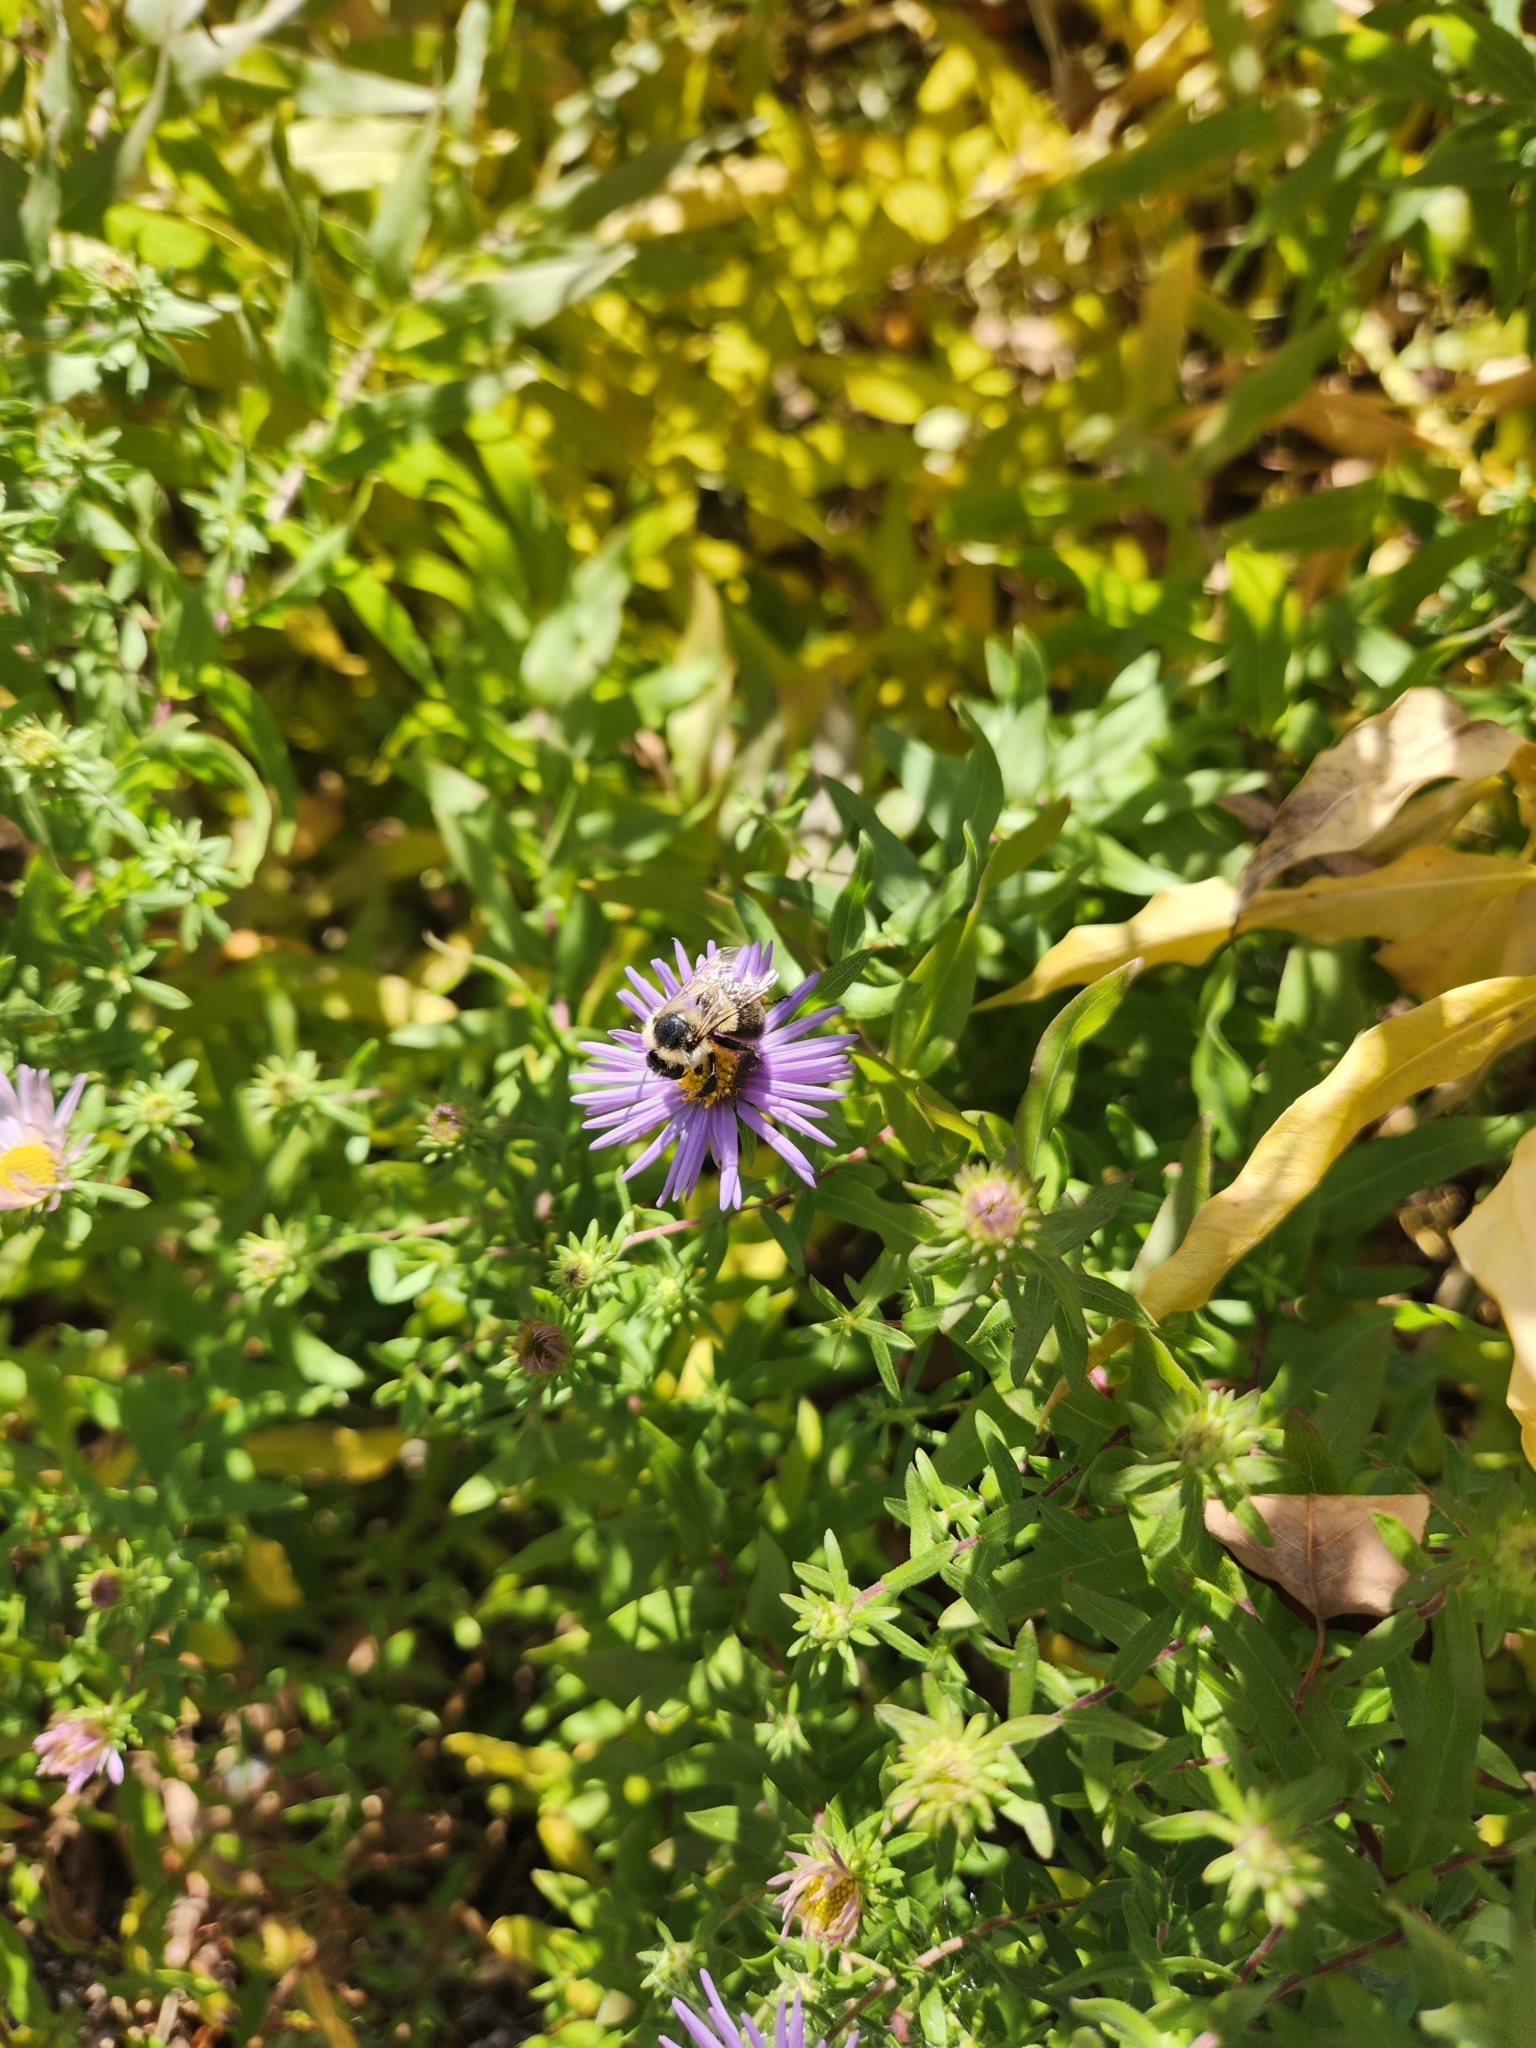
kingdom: Animalia
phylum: Arthropoda
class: Insecta
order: Hymenoptera
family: Apidae
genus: Bombus
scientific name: Bombus impatiens
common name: Common eastern bumble bee
